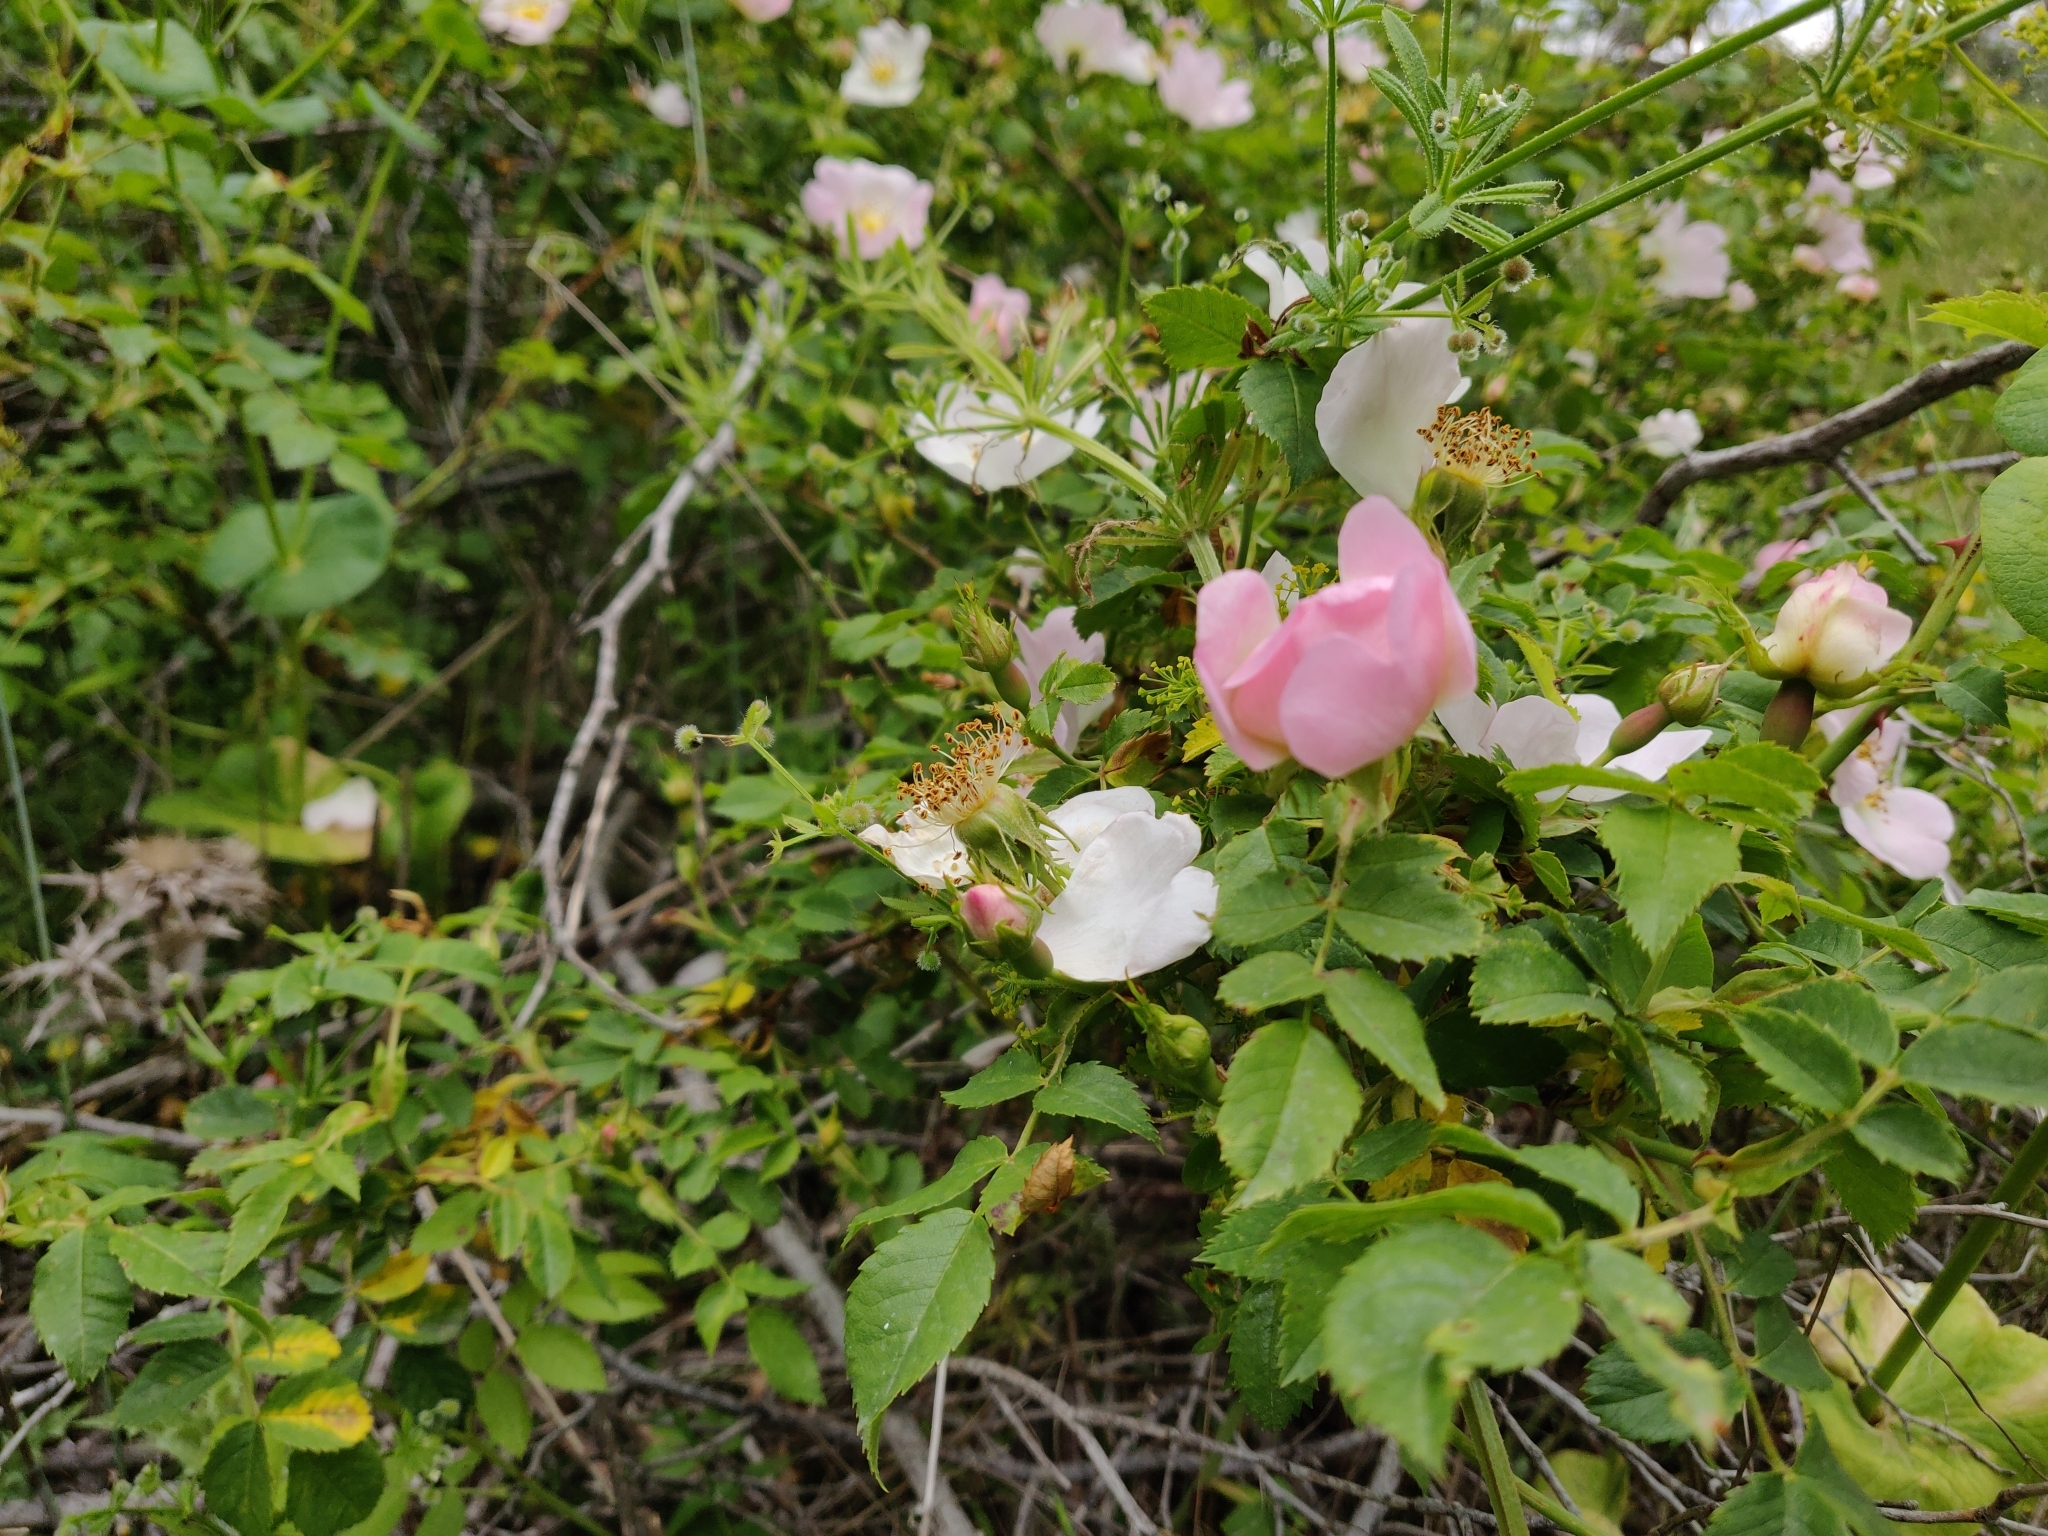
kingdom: Plantae
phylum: Tracheophyta
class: Magnoliopsida
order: Rosales
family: Rosaceae
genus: Rosa
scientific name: Rosa canina
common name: Dog rose
